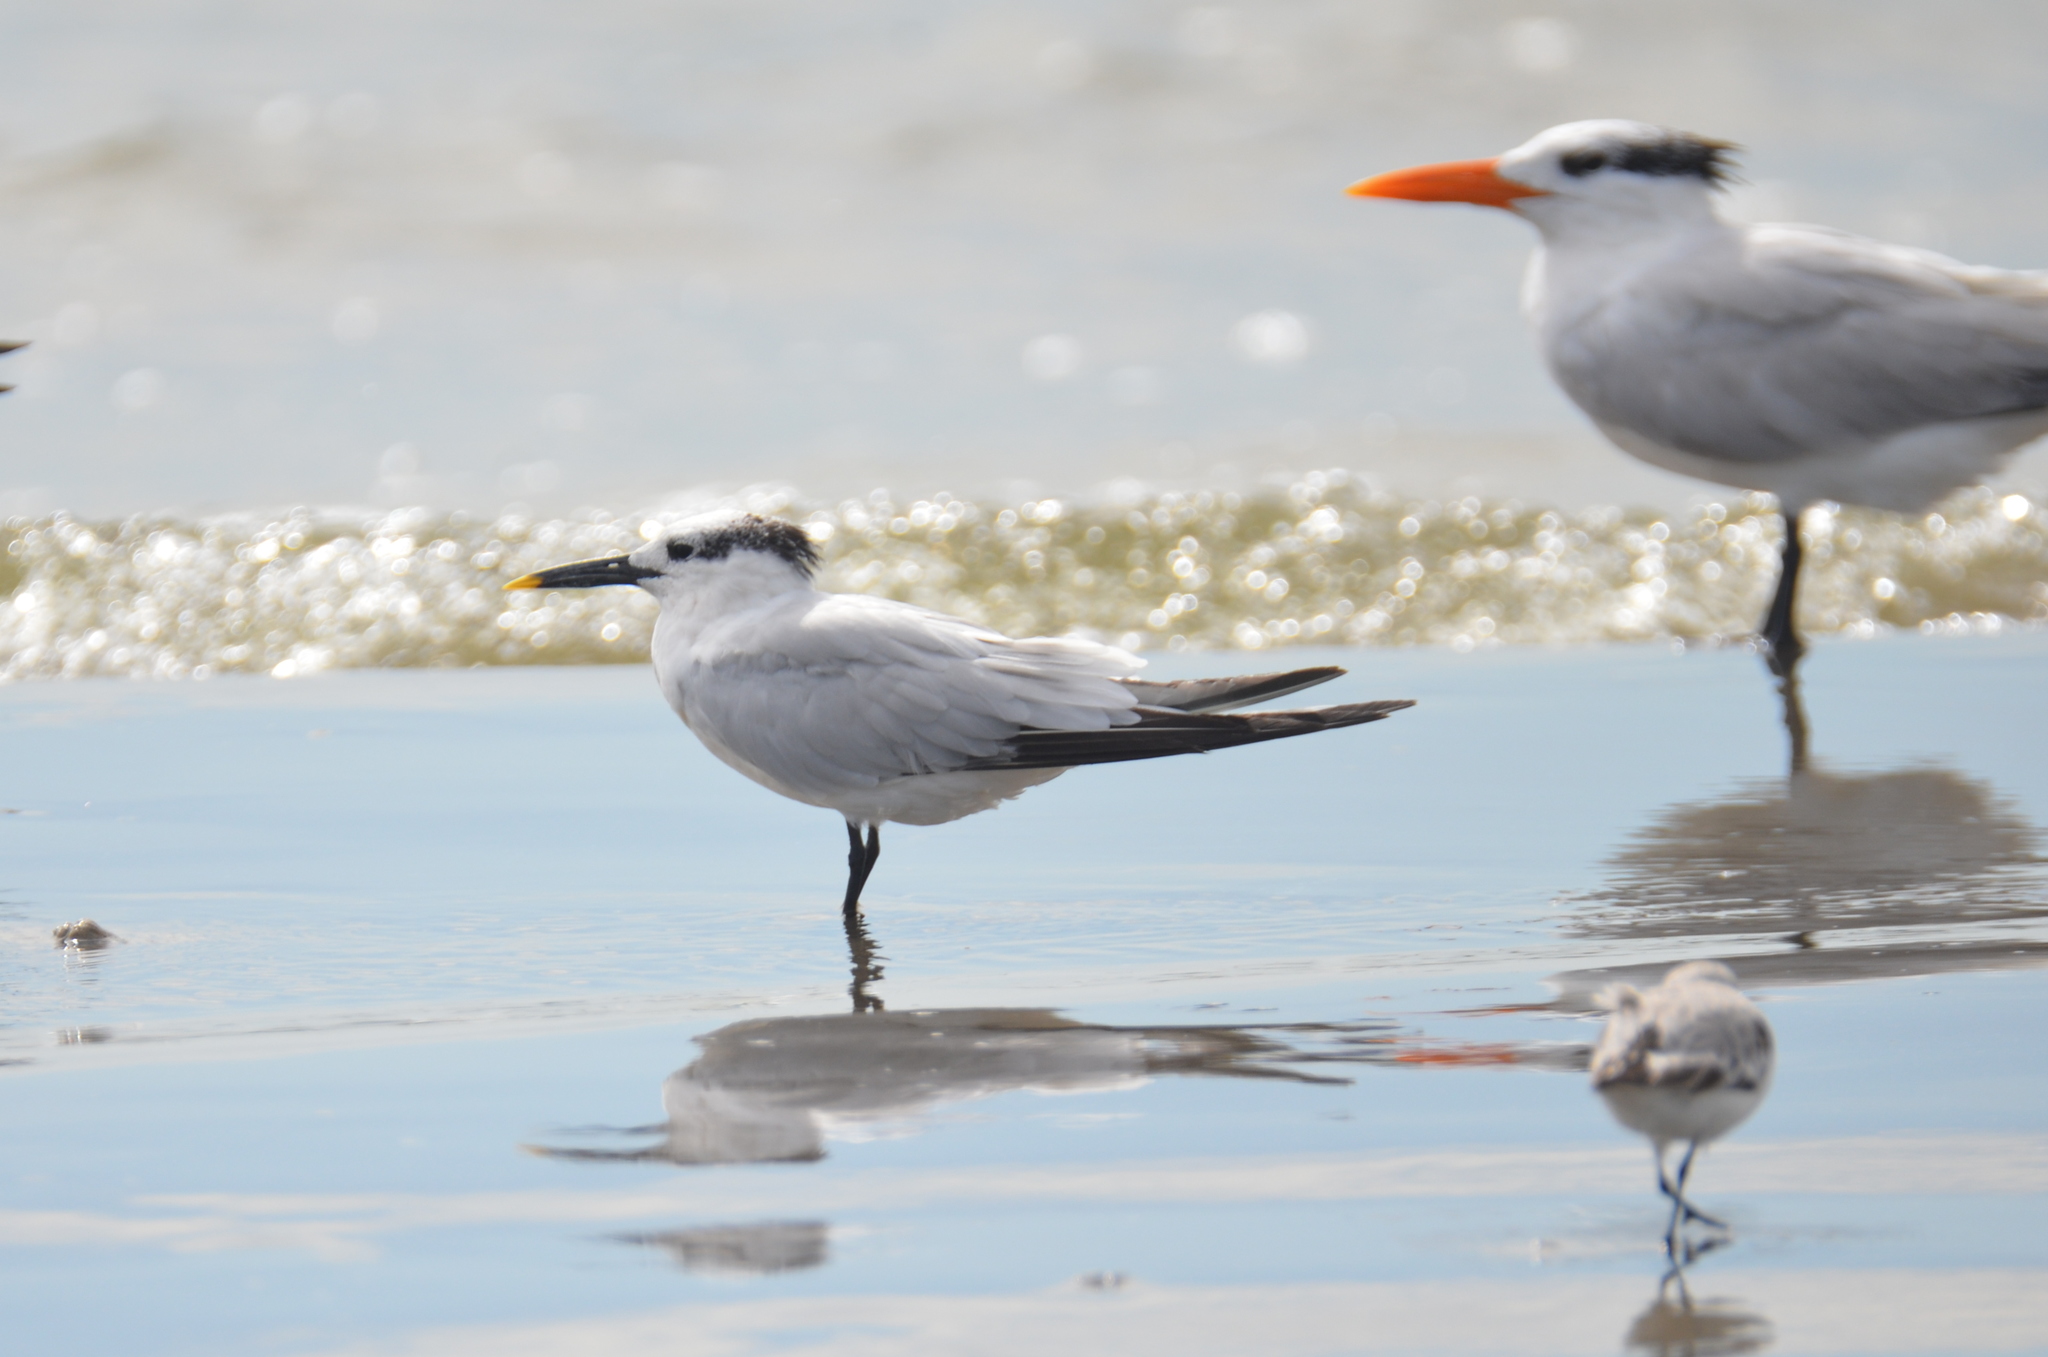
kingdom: Animalia
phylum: Chordata
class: Aves
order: Charadriiformes
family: Laridae
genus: Thalasseus
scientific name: Thalasseus sandvicensis
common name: Sandwich tern
